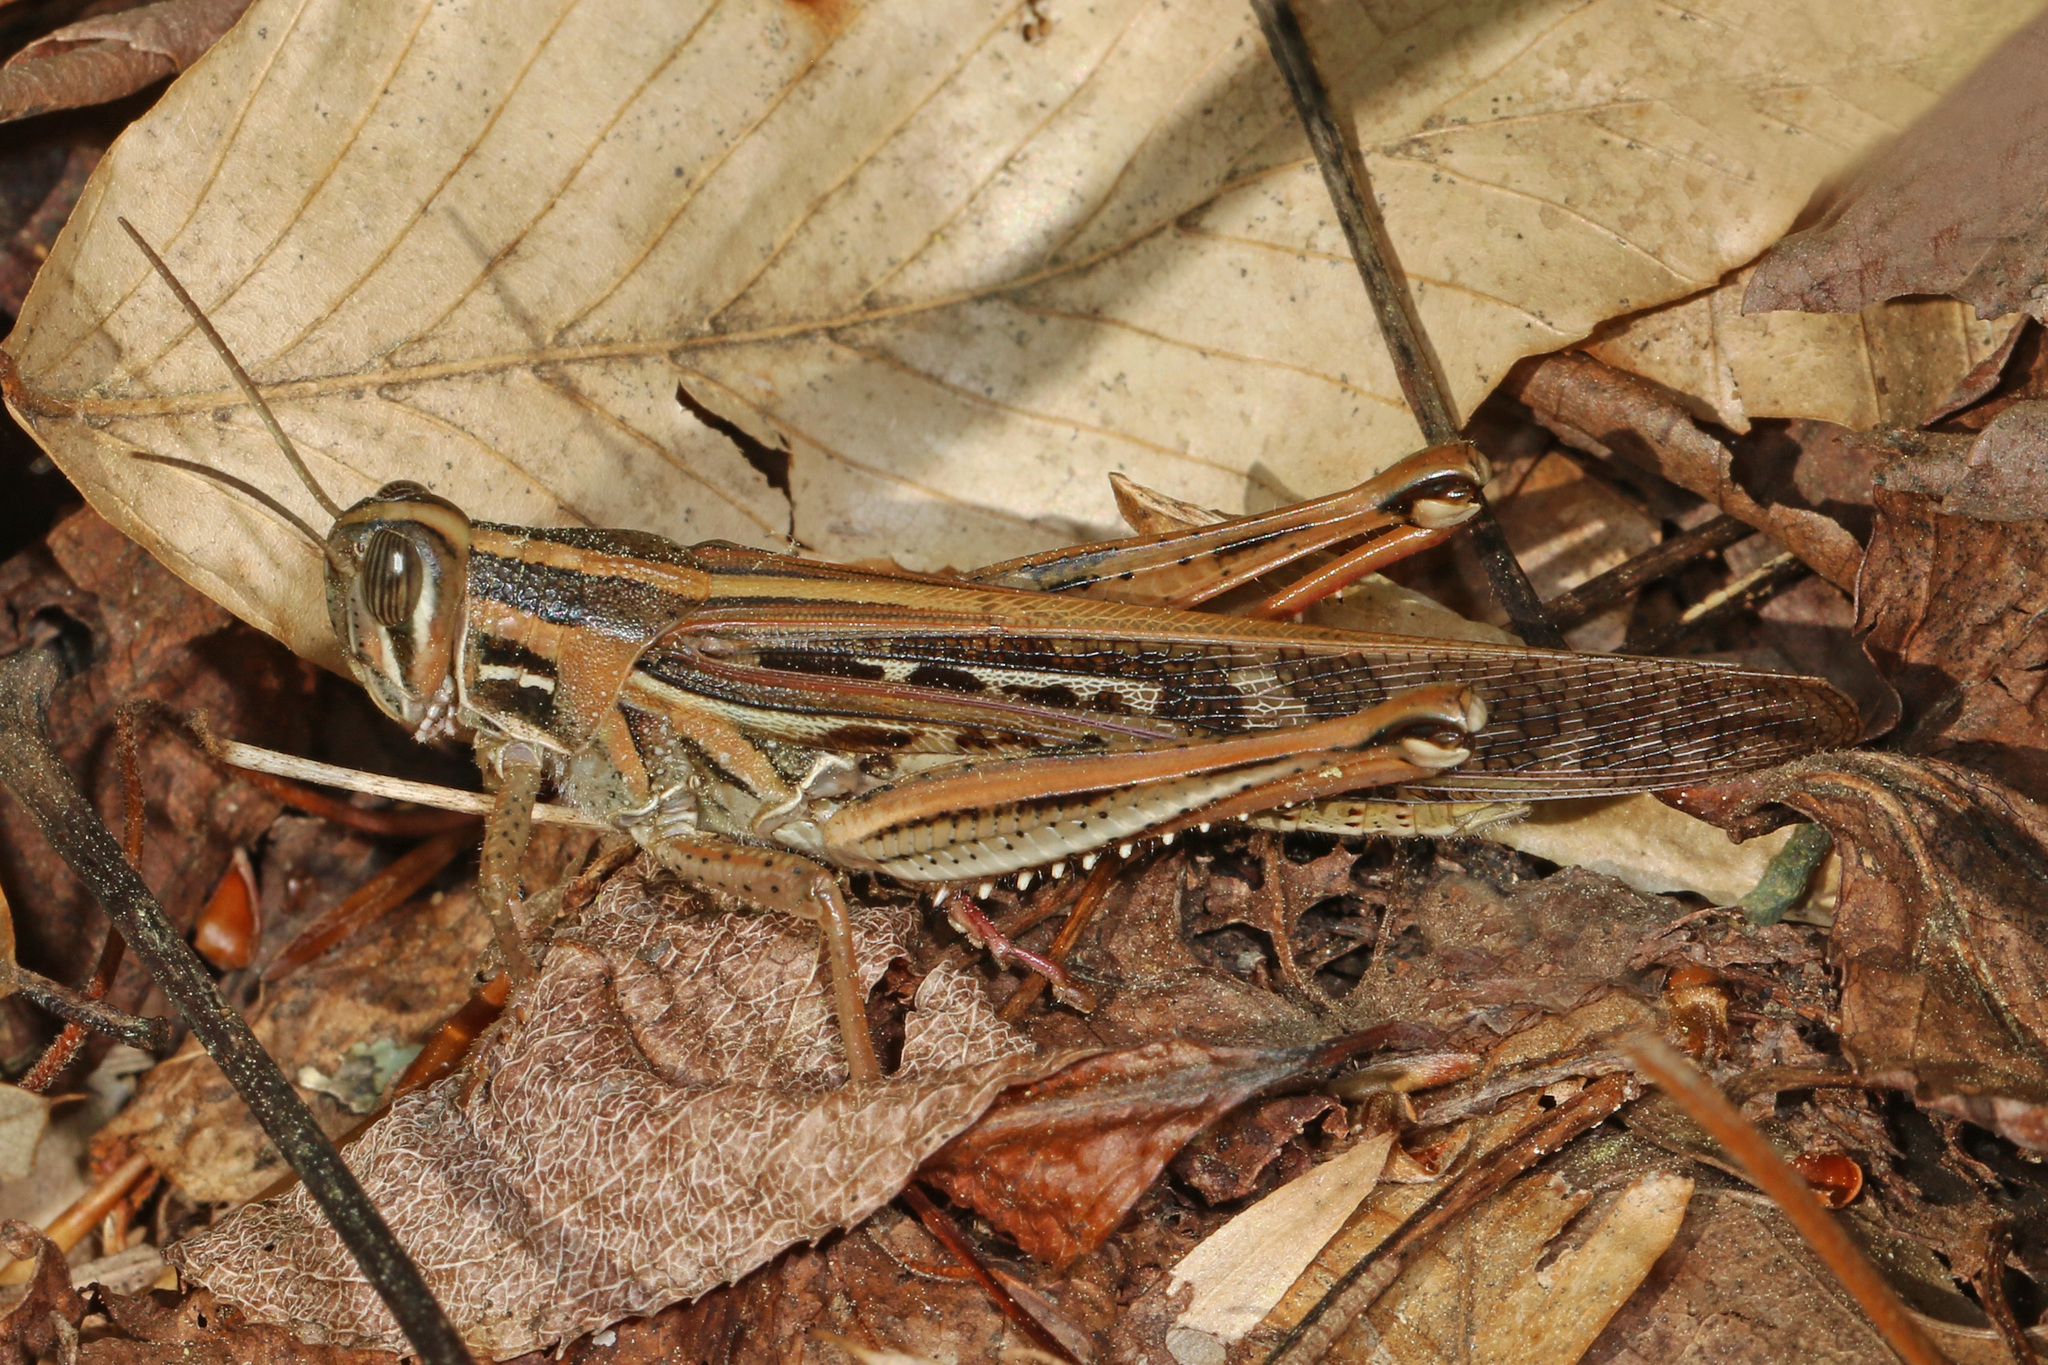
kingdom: Animalia
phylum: Arthropoda
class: Insecta
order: Orthoptera
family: Acrididae
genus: Schistocerca
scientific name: Schistocerca americana
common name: American bird locust
